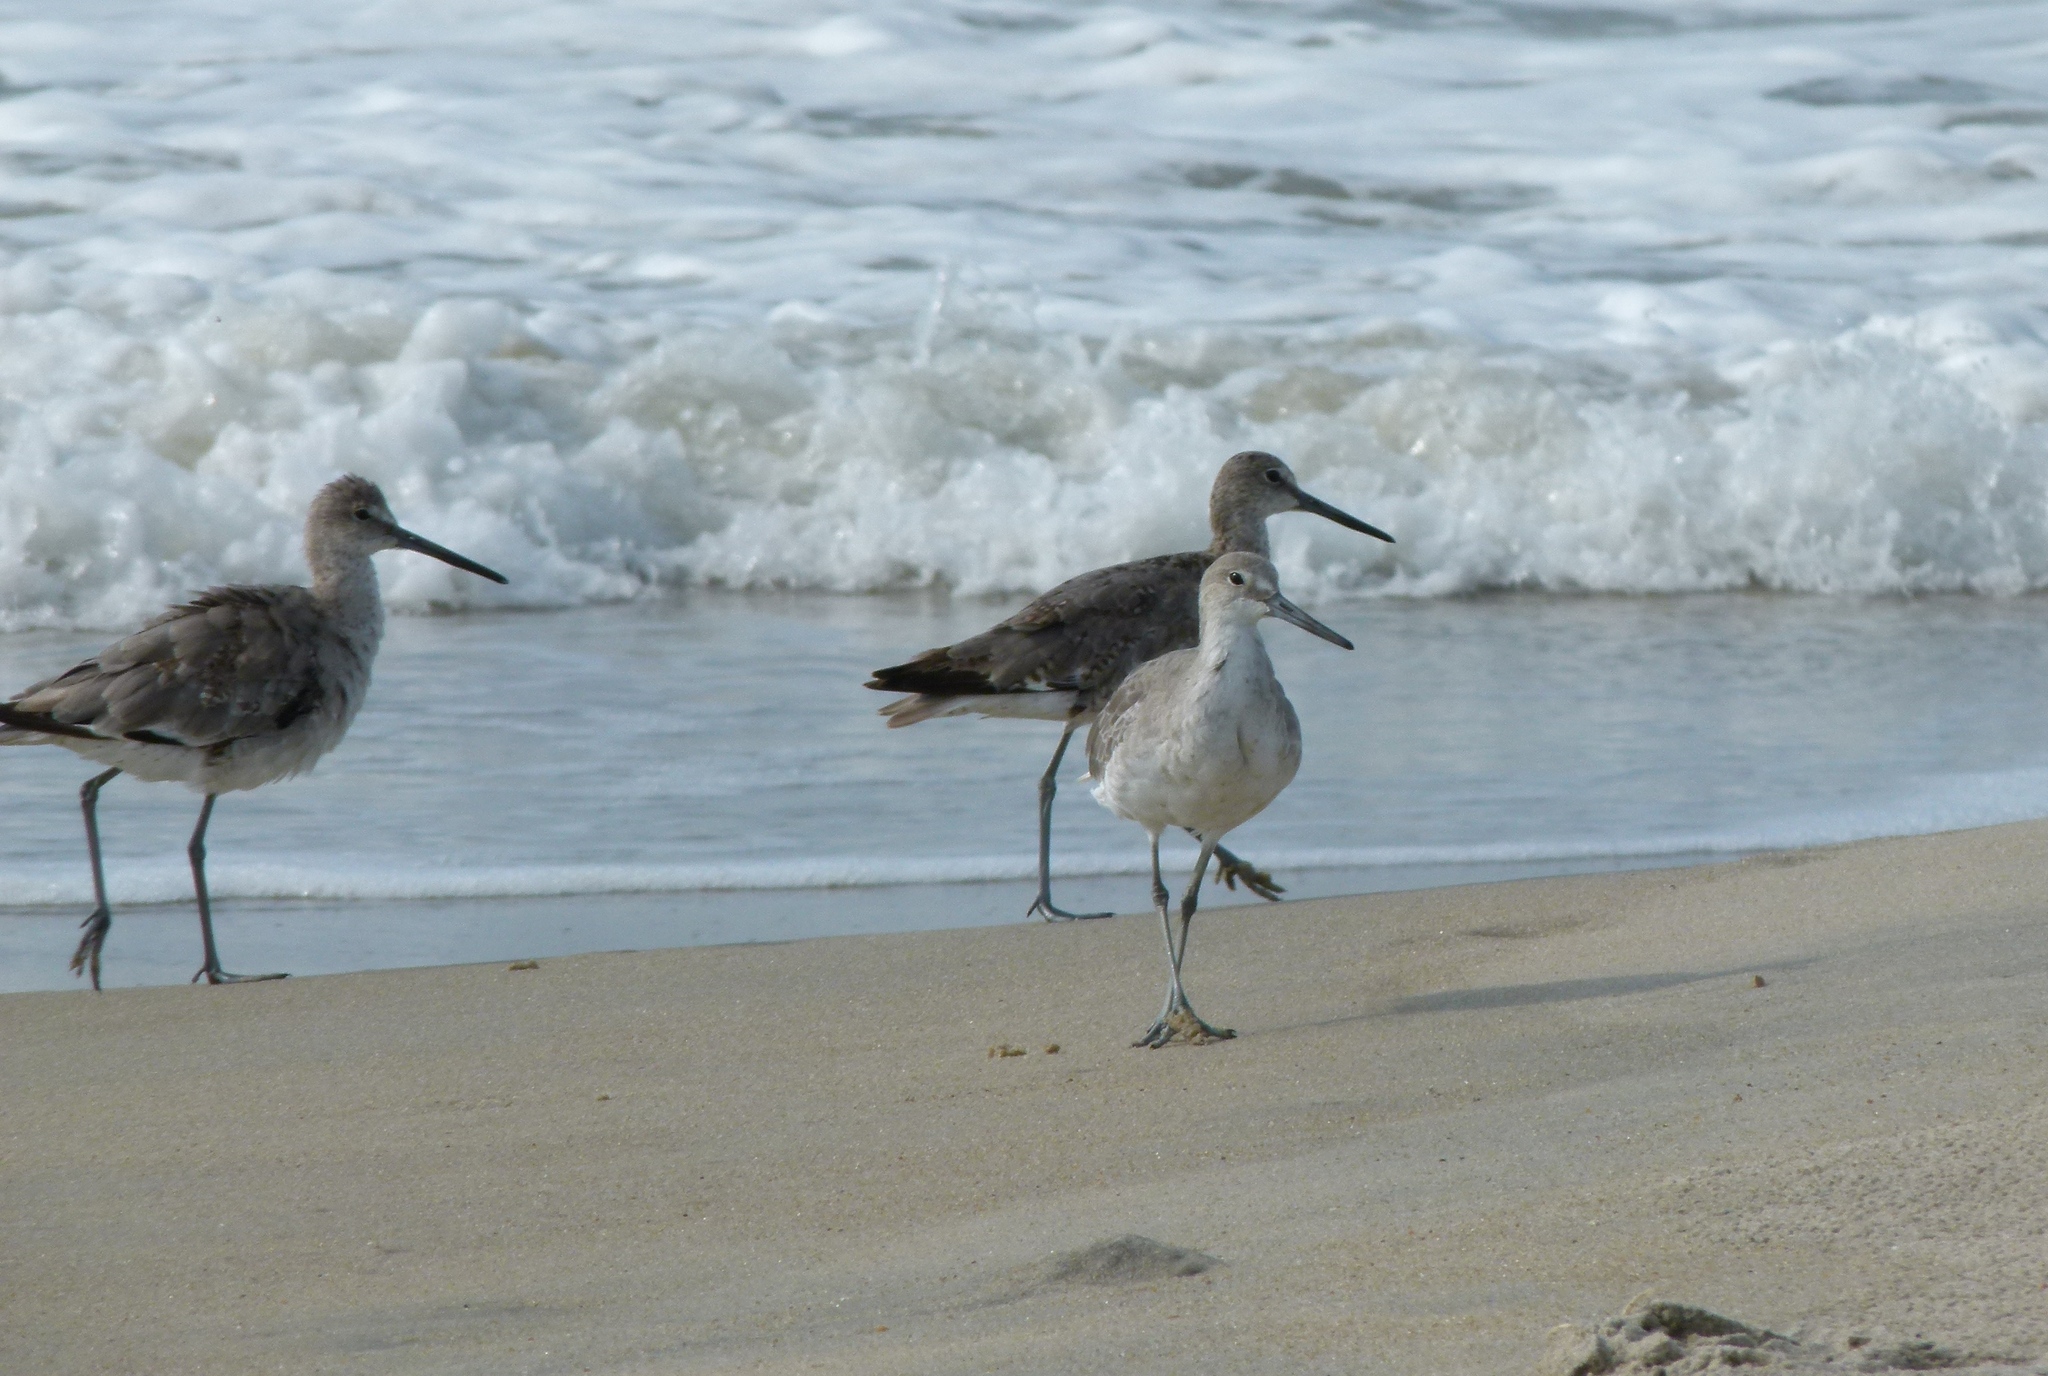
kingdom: Animalia
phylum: Chordata
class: Aves
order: Charadriiformes
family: Scolopacidae
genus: Tringa
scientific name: Tringa semipalmata
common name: Willet
